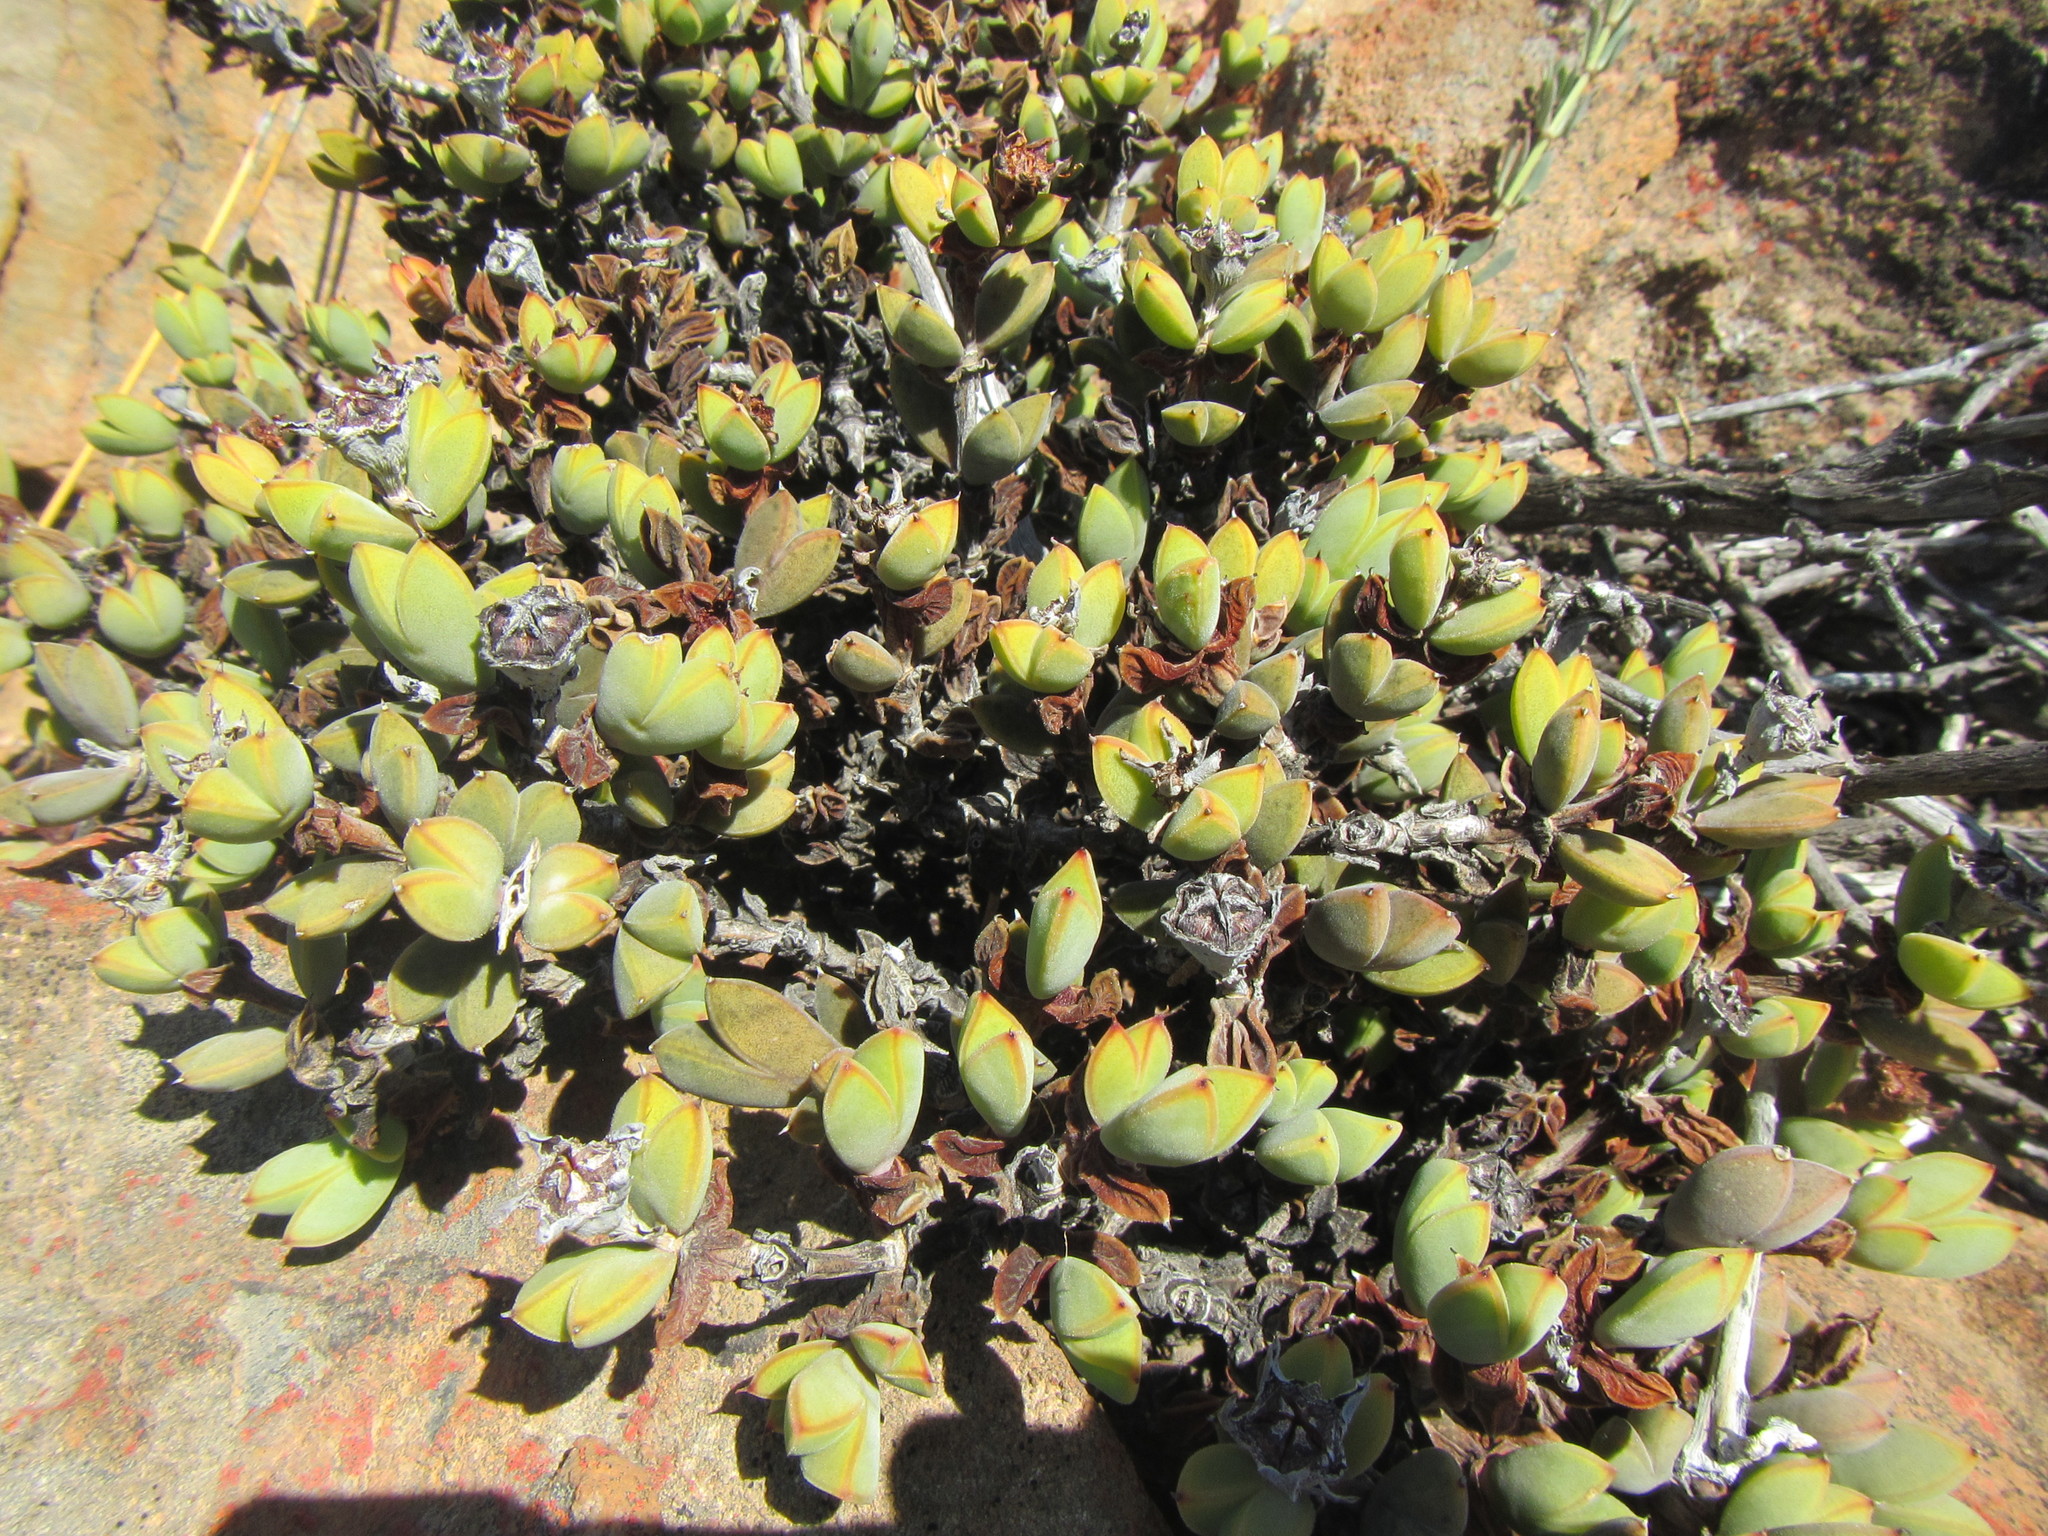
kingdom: Plantae
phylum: Tracheophyta
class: Magnoliopsida
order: Caryophyllales
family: Aizoaceae
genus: Braunsia
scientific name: Braunsia apiculata
